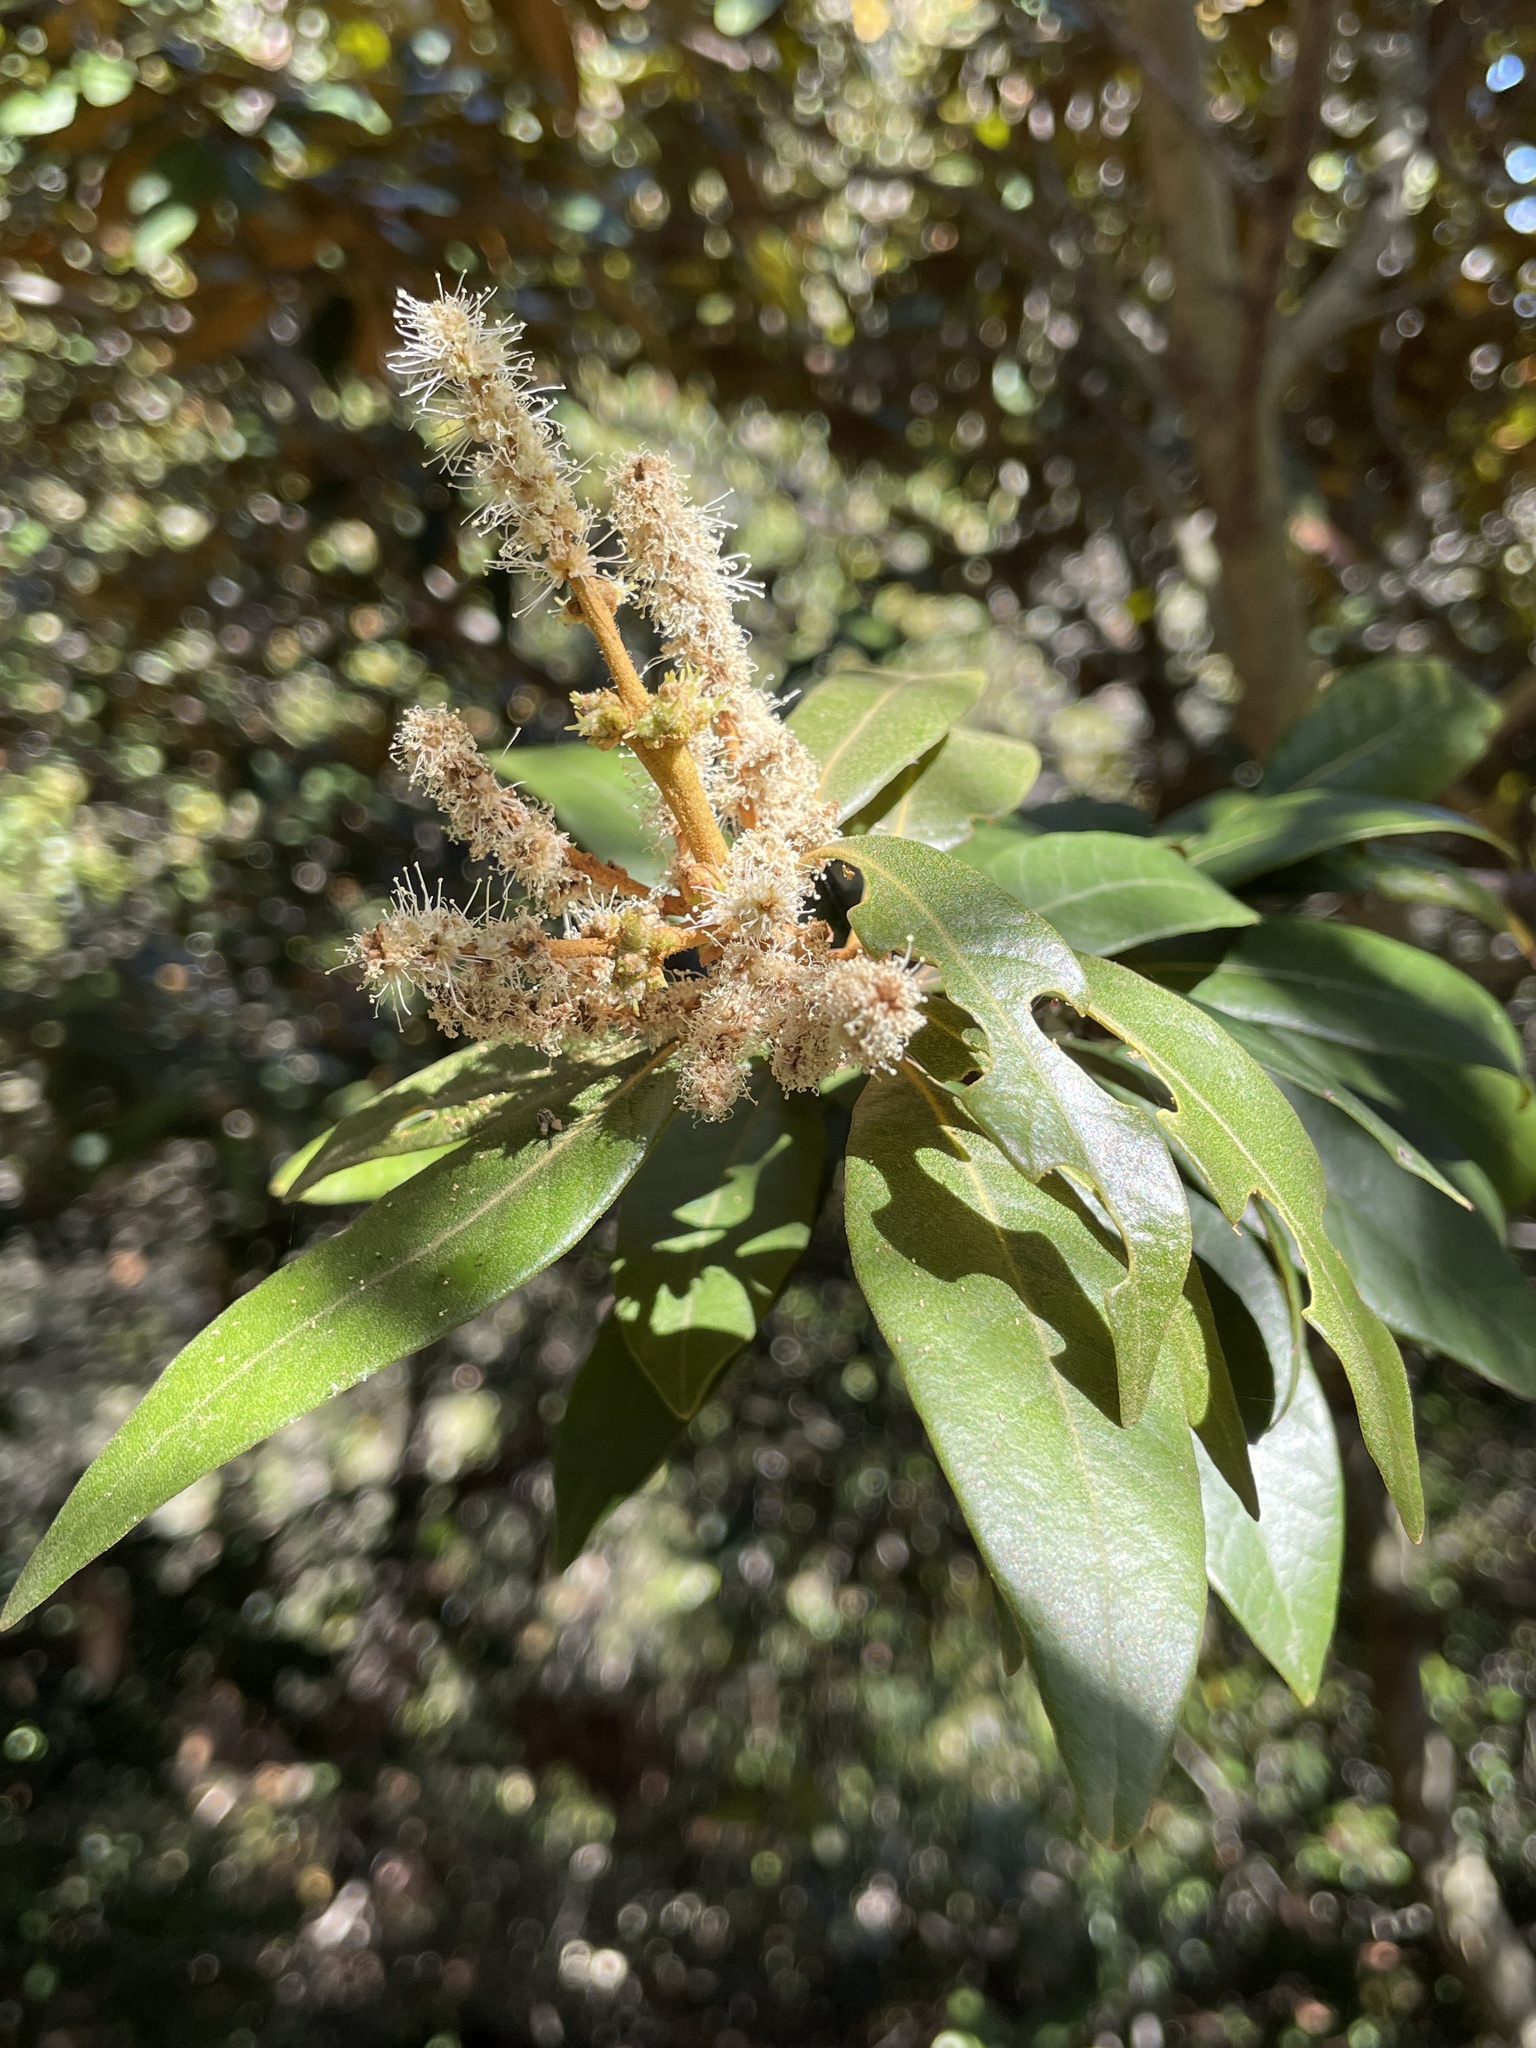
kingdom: Plantae
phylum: Tracheophyta
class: Magnoliopsida
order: Fagales
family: Fagaceae
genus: Chrysolepis
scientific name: Chrysolepis chrysophylla
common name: Giant chinquapin
